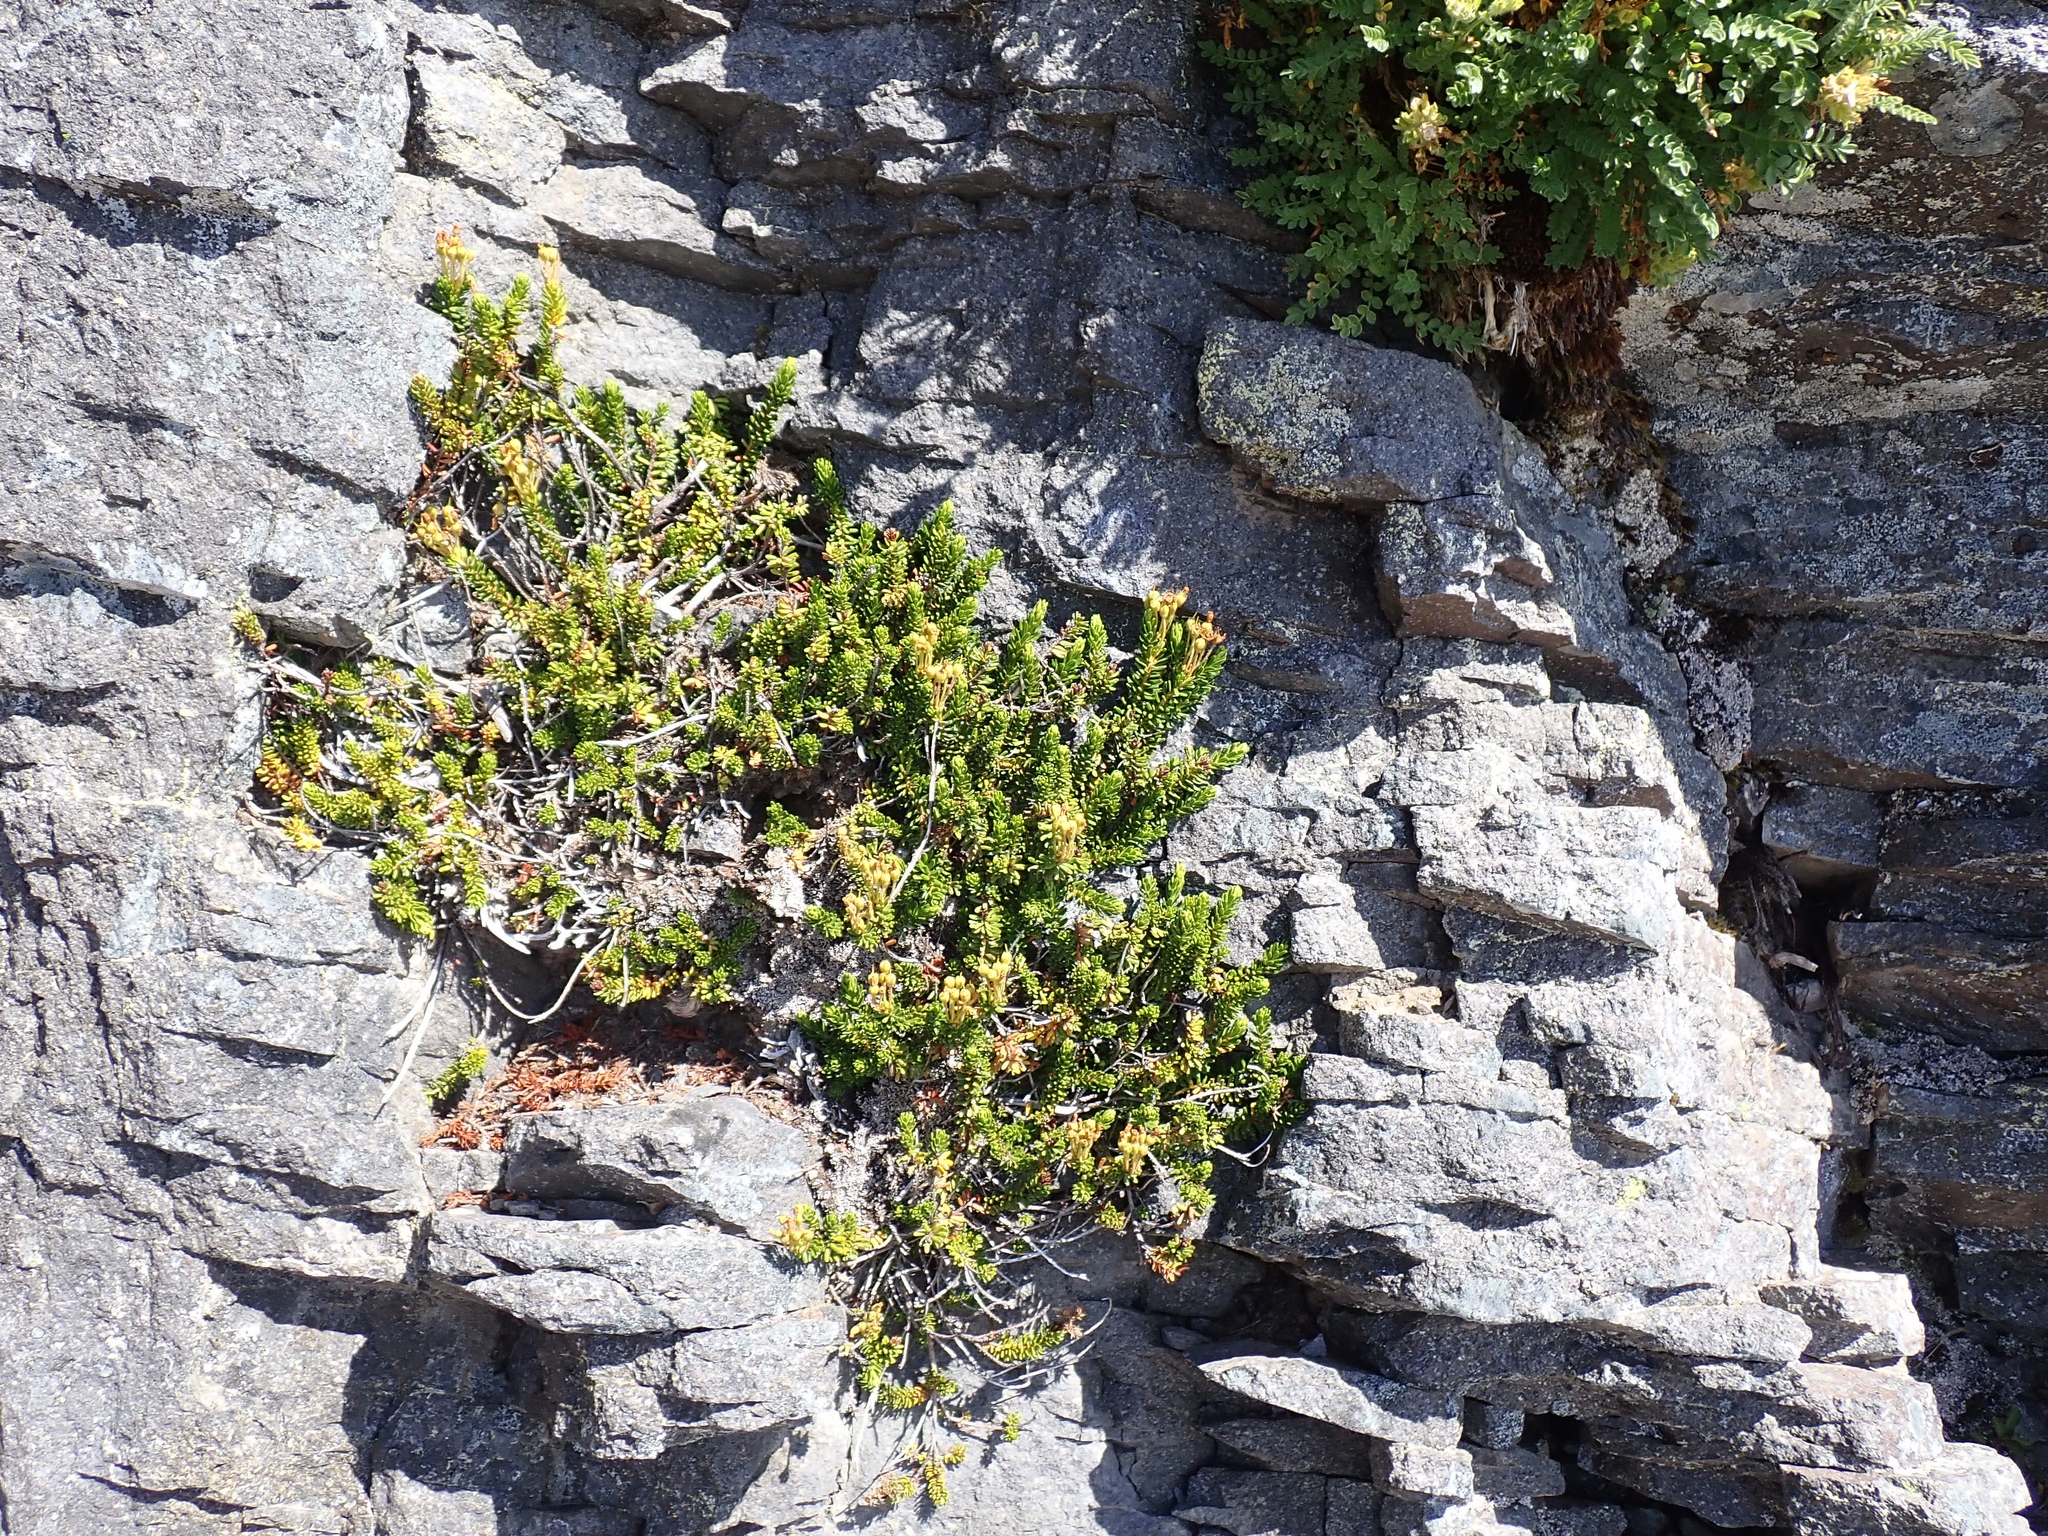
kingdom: Plantae
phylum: Tracheophyta
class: Magnoliopsida
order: Ericales
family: Ericaceae
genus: Phyllodoce
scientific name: Phyllodoce glanduliflora
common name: Cream mountain heather
